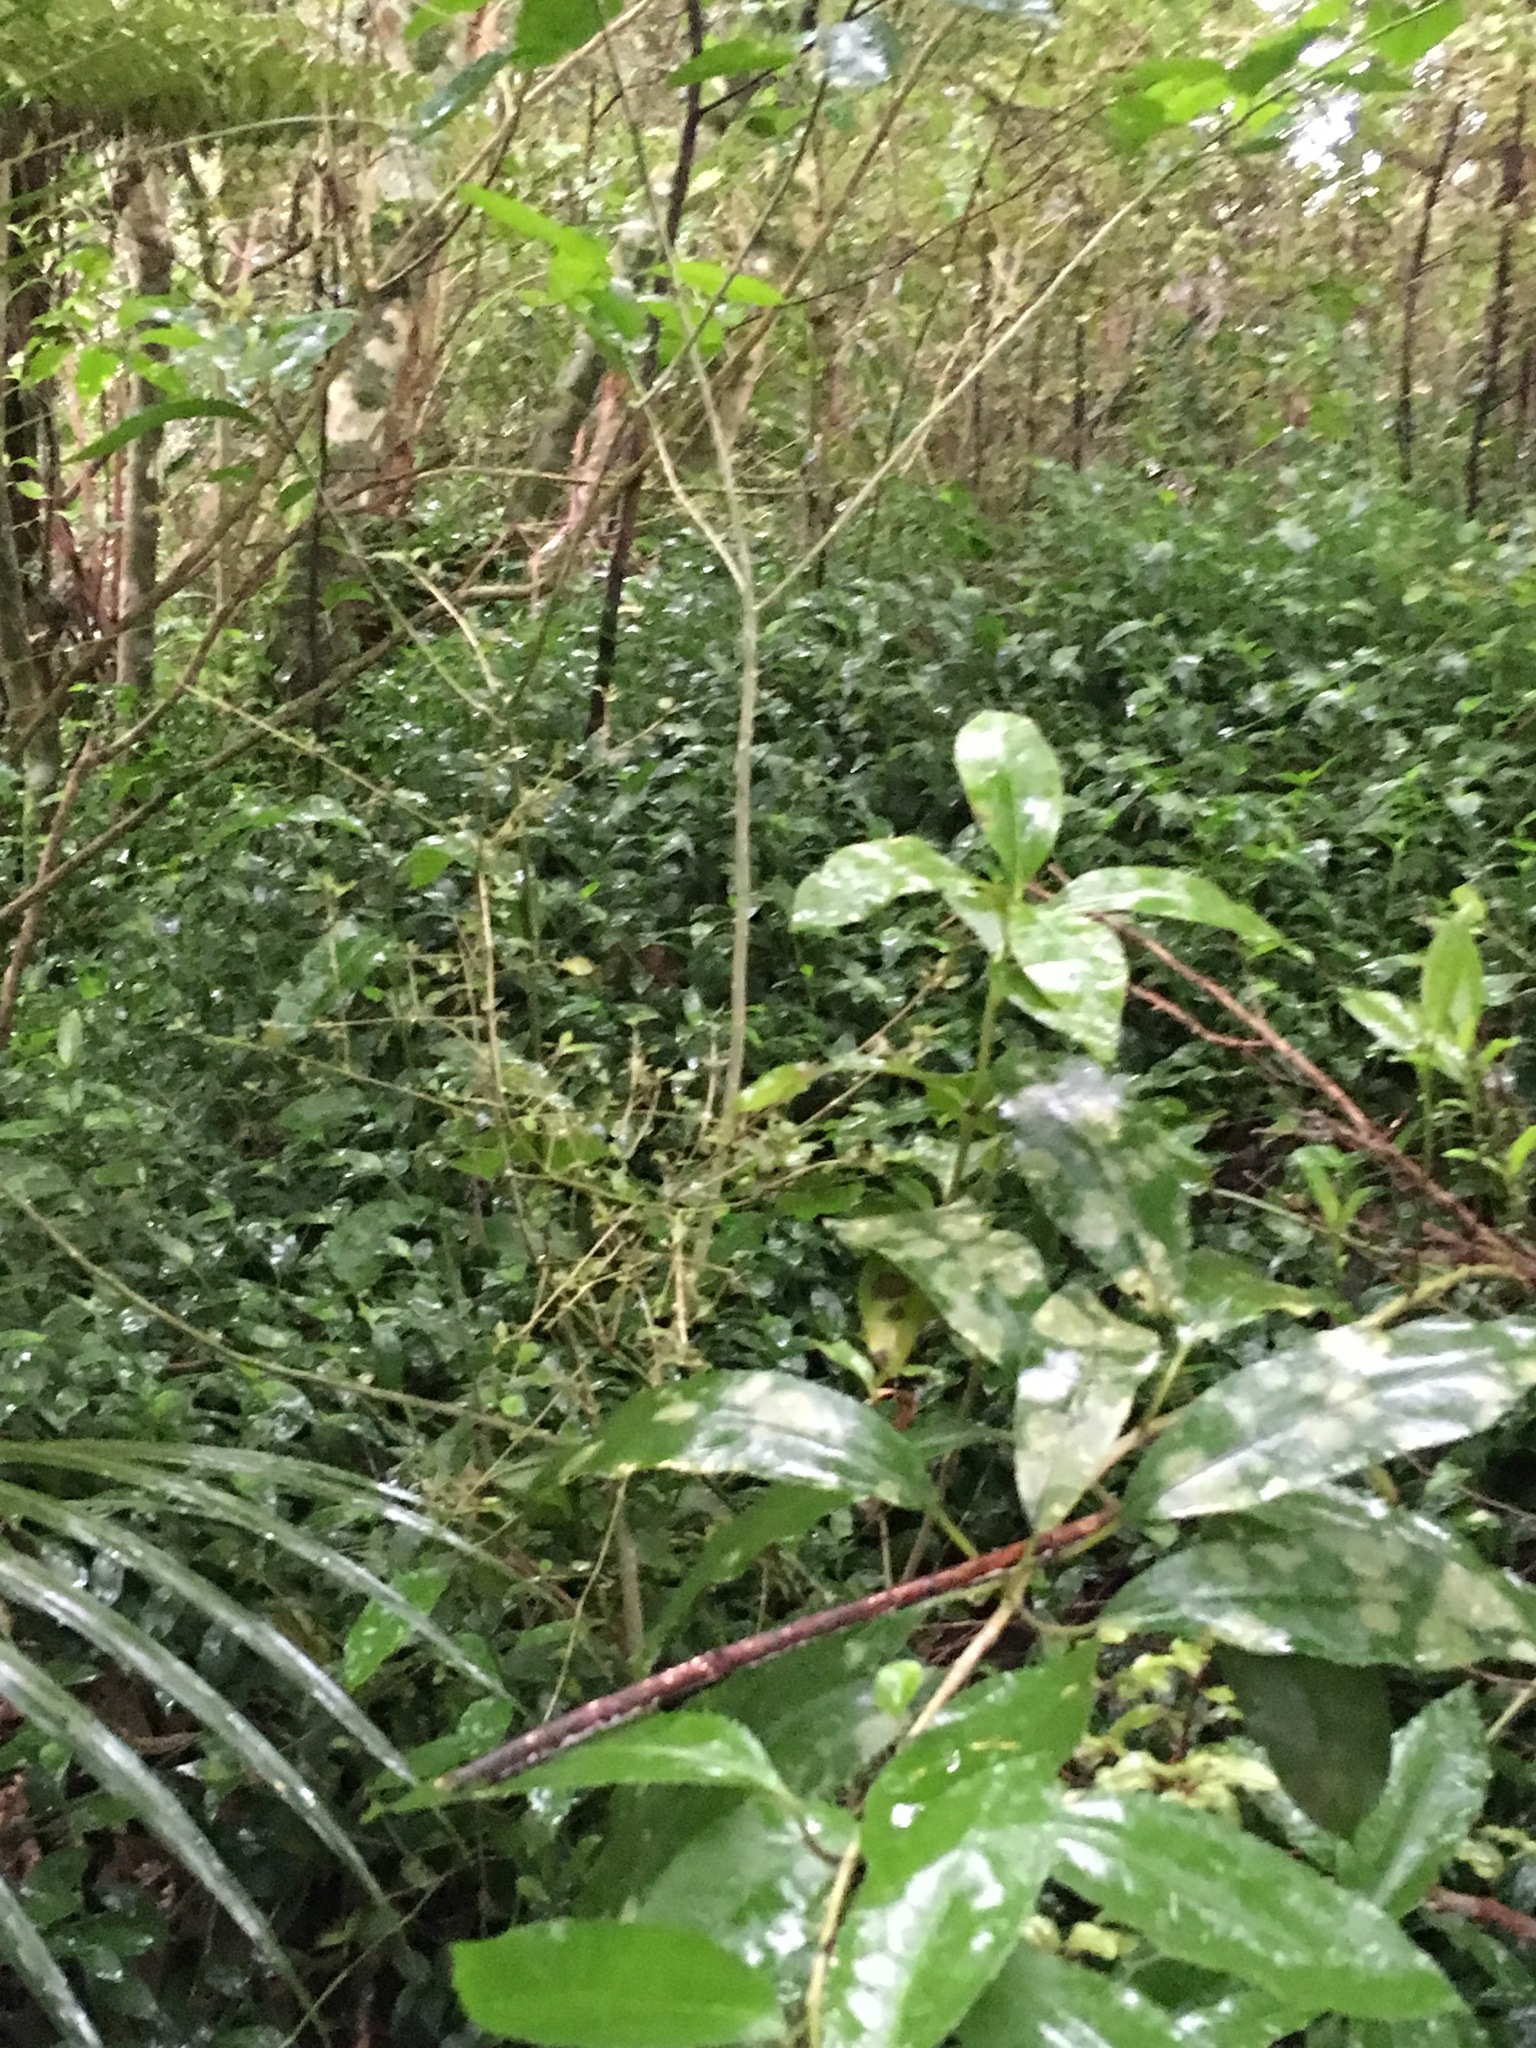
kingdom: Plantae
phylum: Tracheophyta
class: Magnoliopsida
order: Malpighiales
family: Violaceae
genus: Melicytus
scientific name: Melicytus ramiflorus
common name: Mahoe
